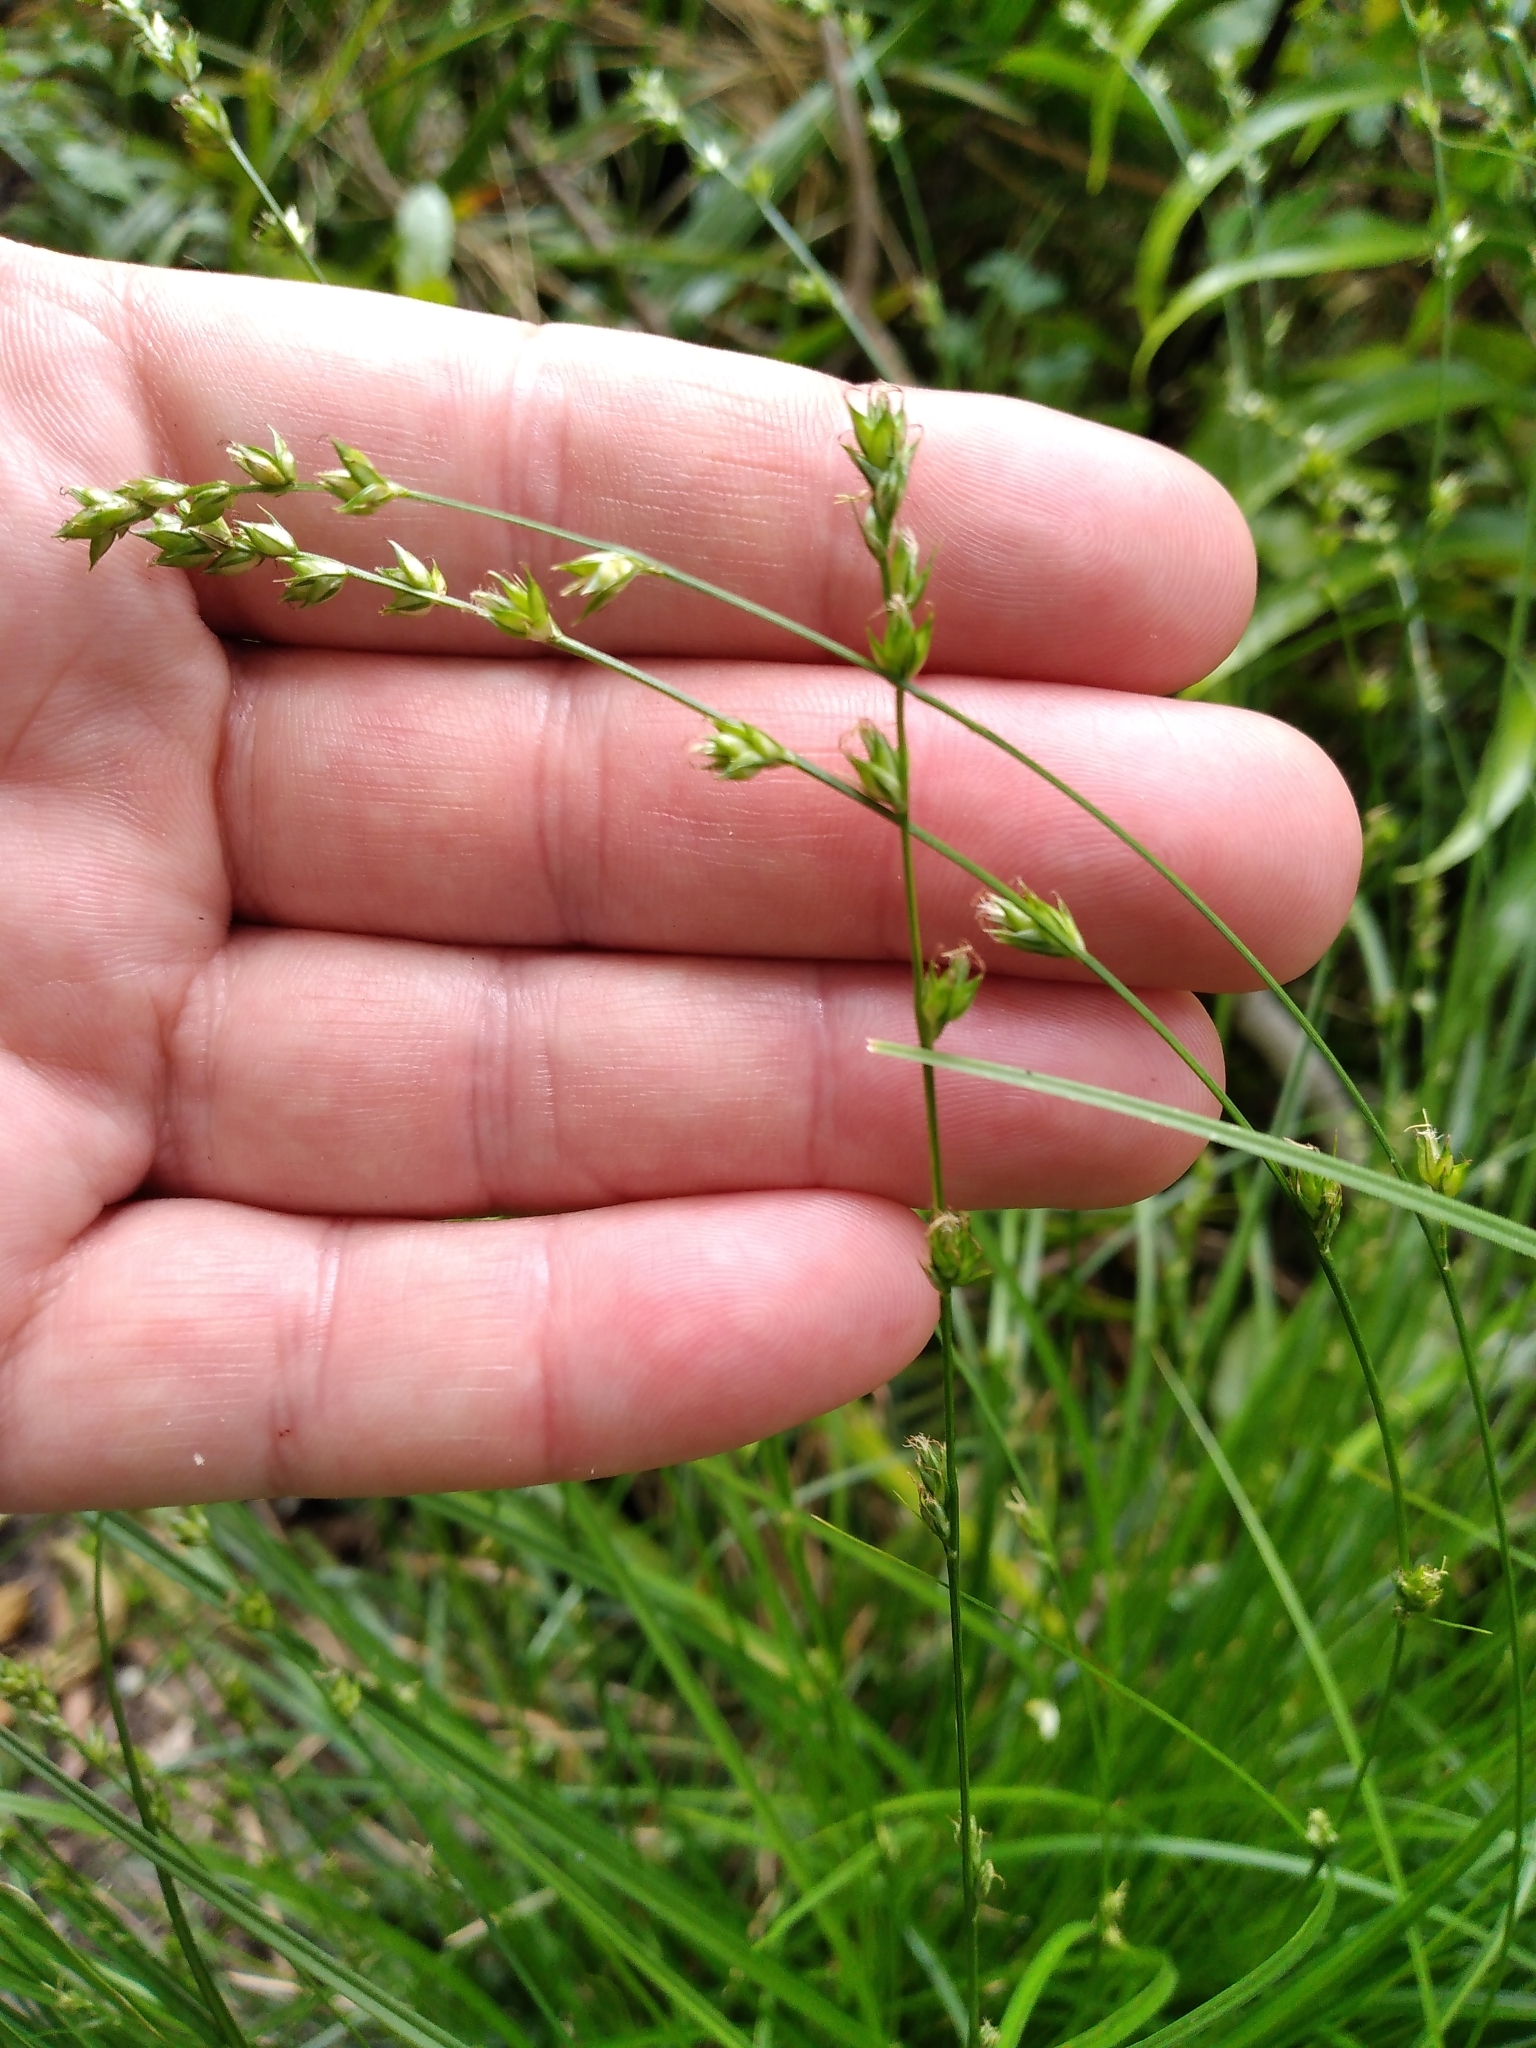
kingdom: Plantae
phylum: Tracheophyta
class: Liliopsida
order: Poales
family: Cyperaceae
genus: Carex
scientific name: Carex divulsa
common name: Grassland sedge
